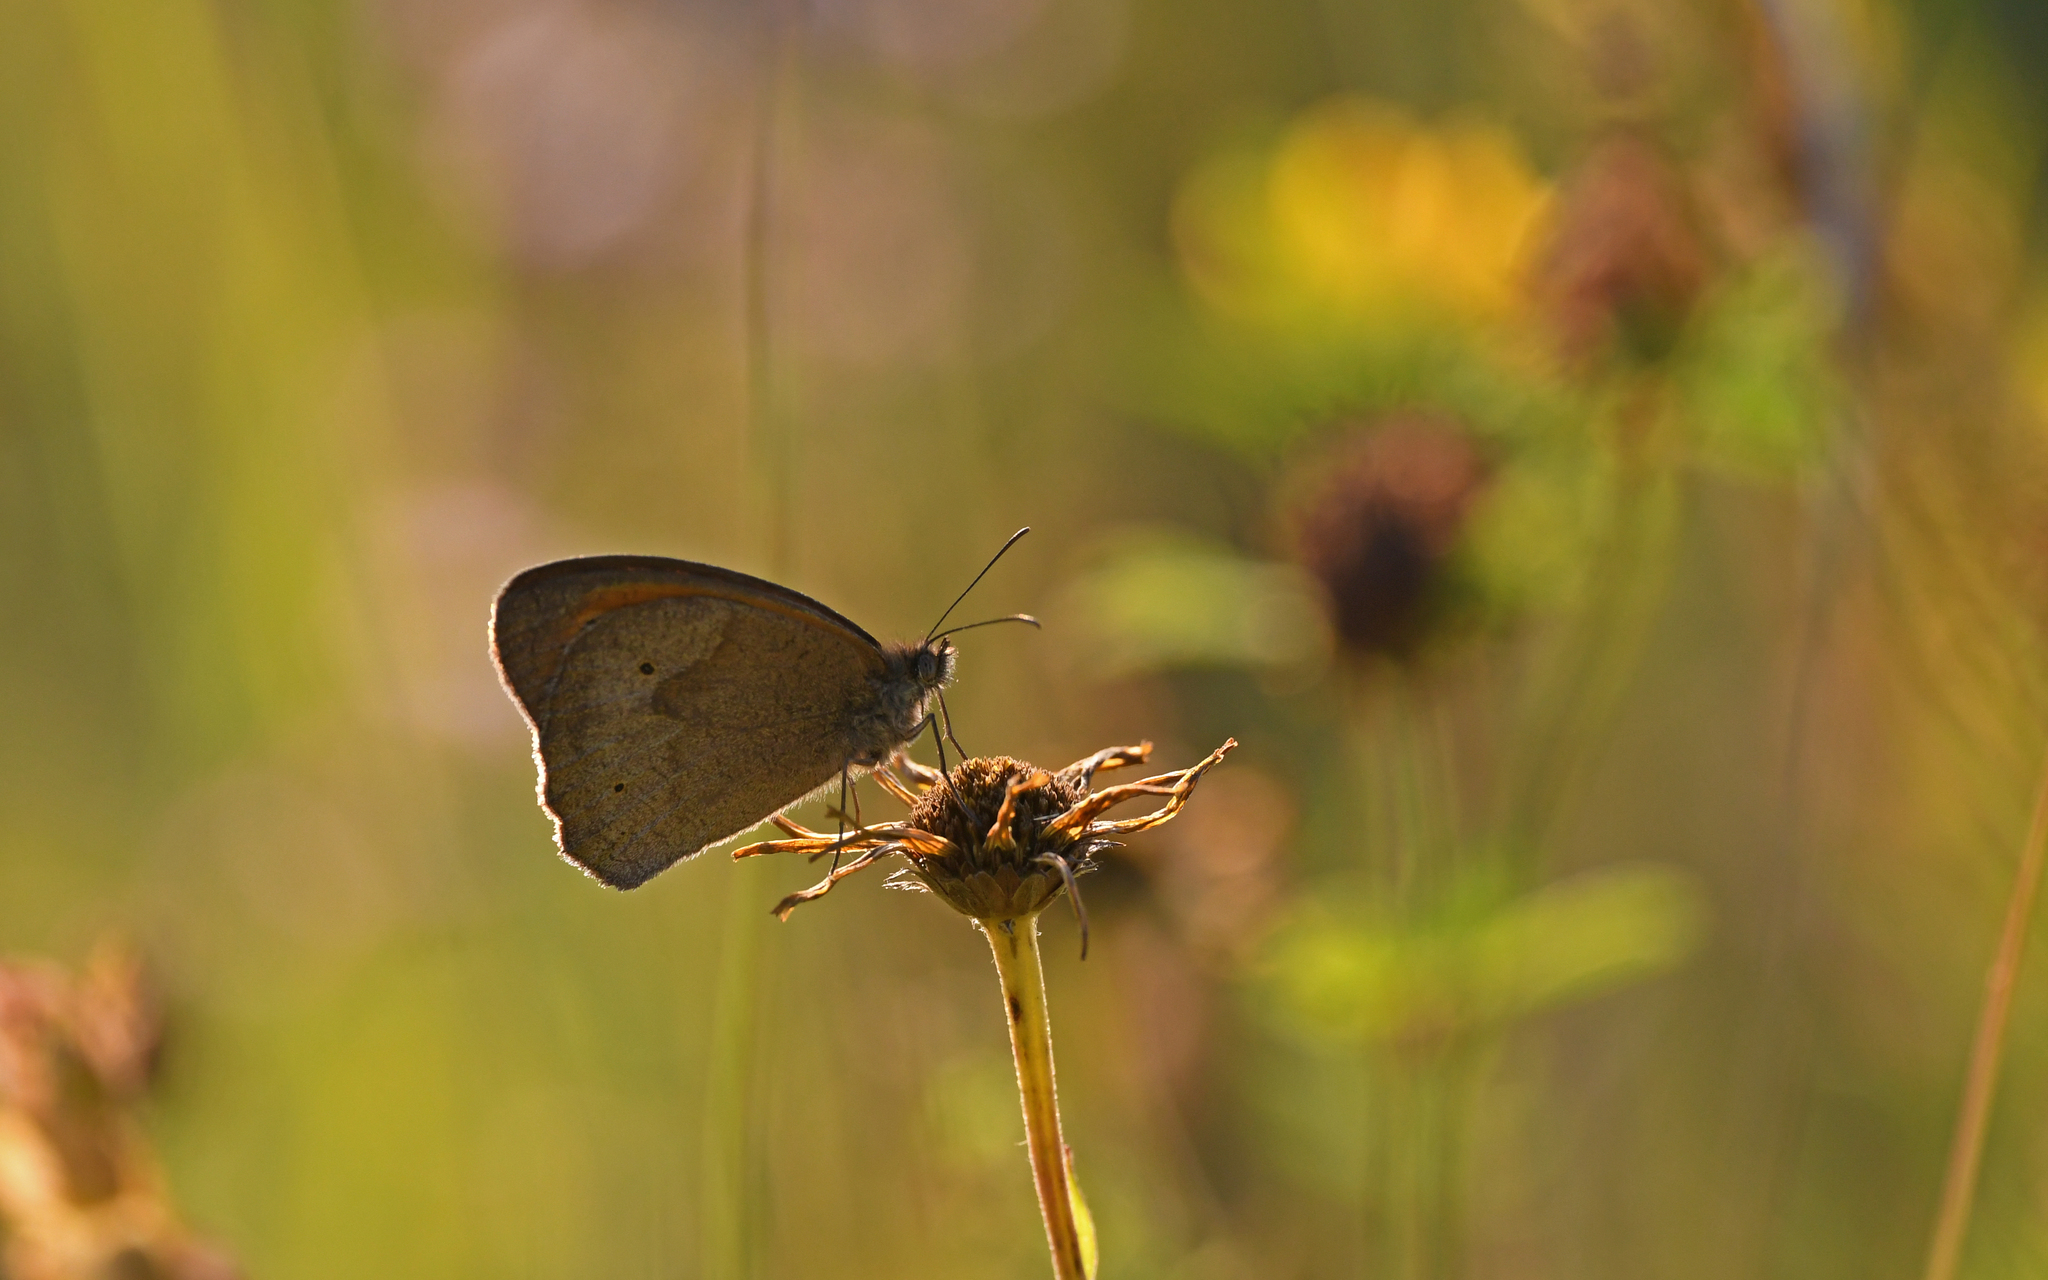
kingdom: Animalia
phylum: Arthropoda
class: Insecta
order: Lepidoptera
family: Nymphalidae
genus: Maniola
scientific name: Maniola jurtina
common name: Meadow brown
